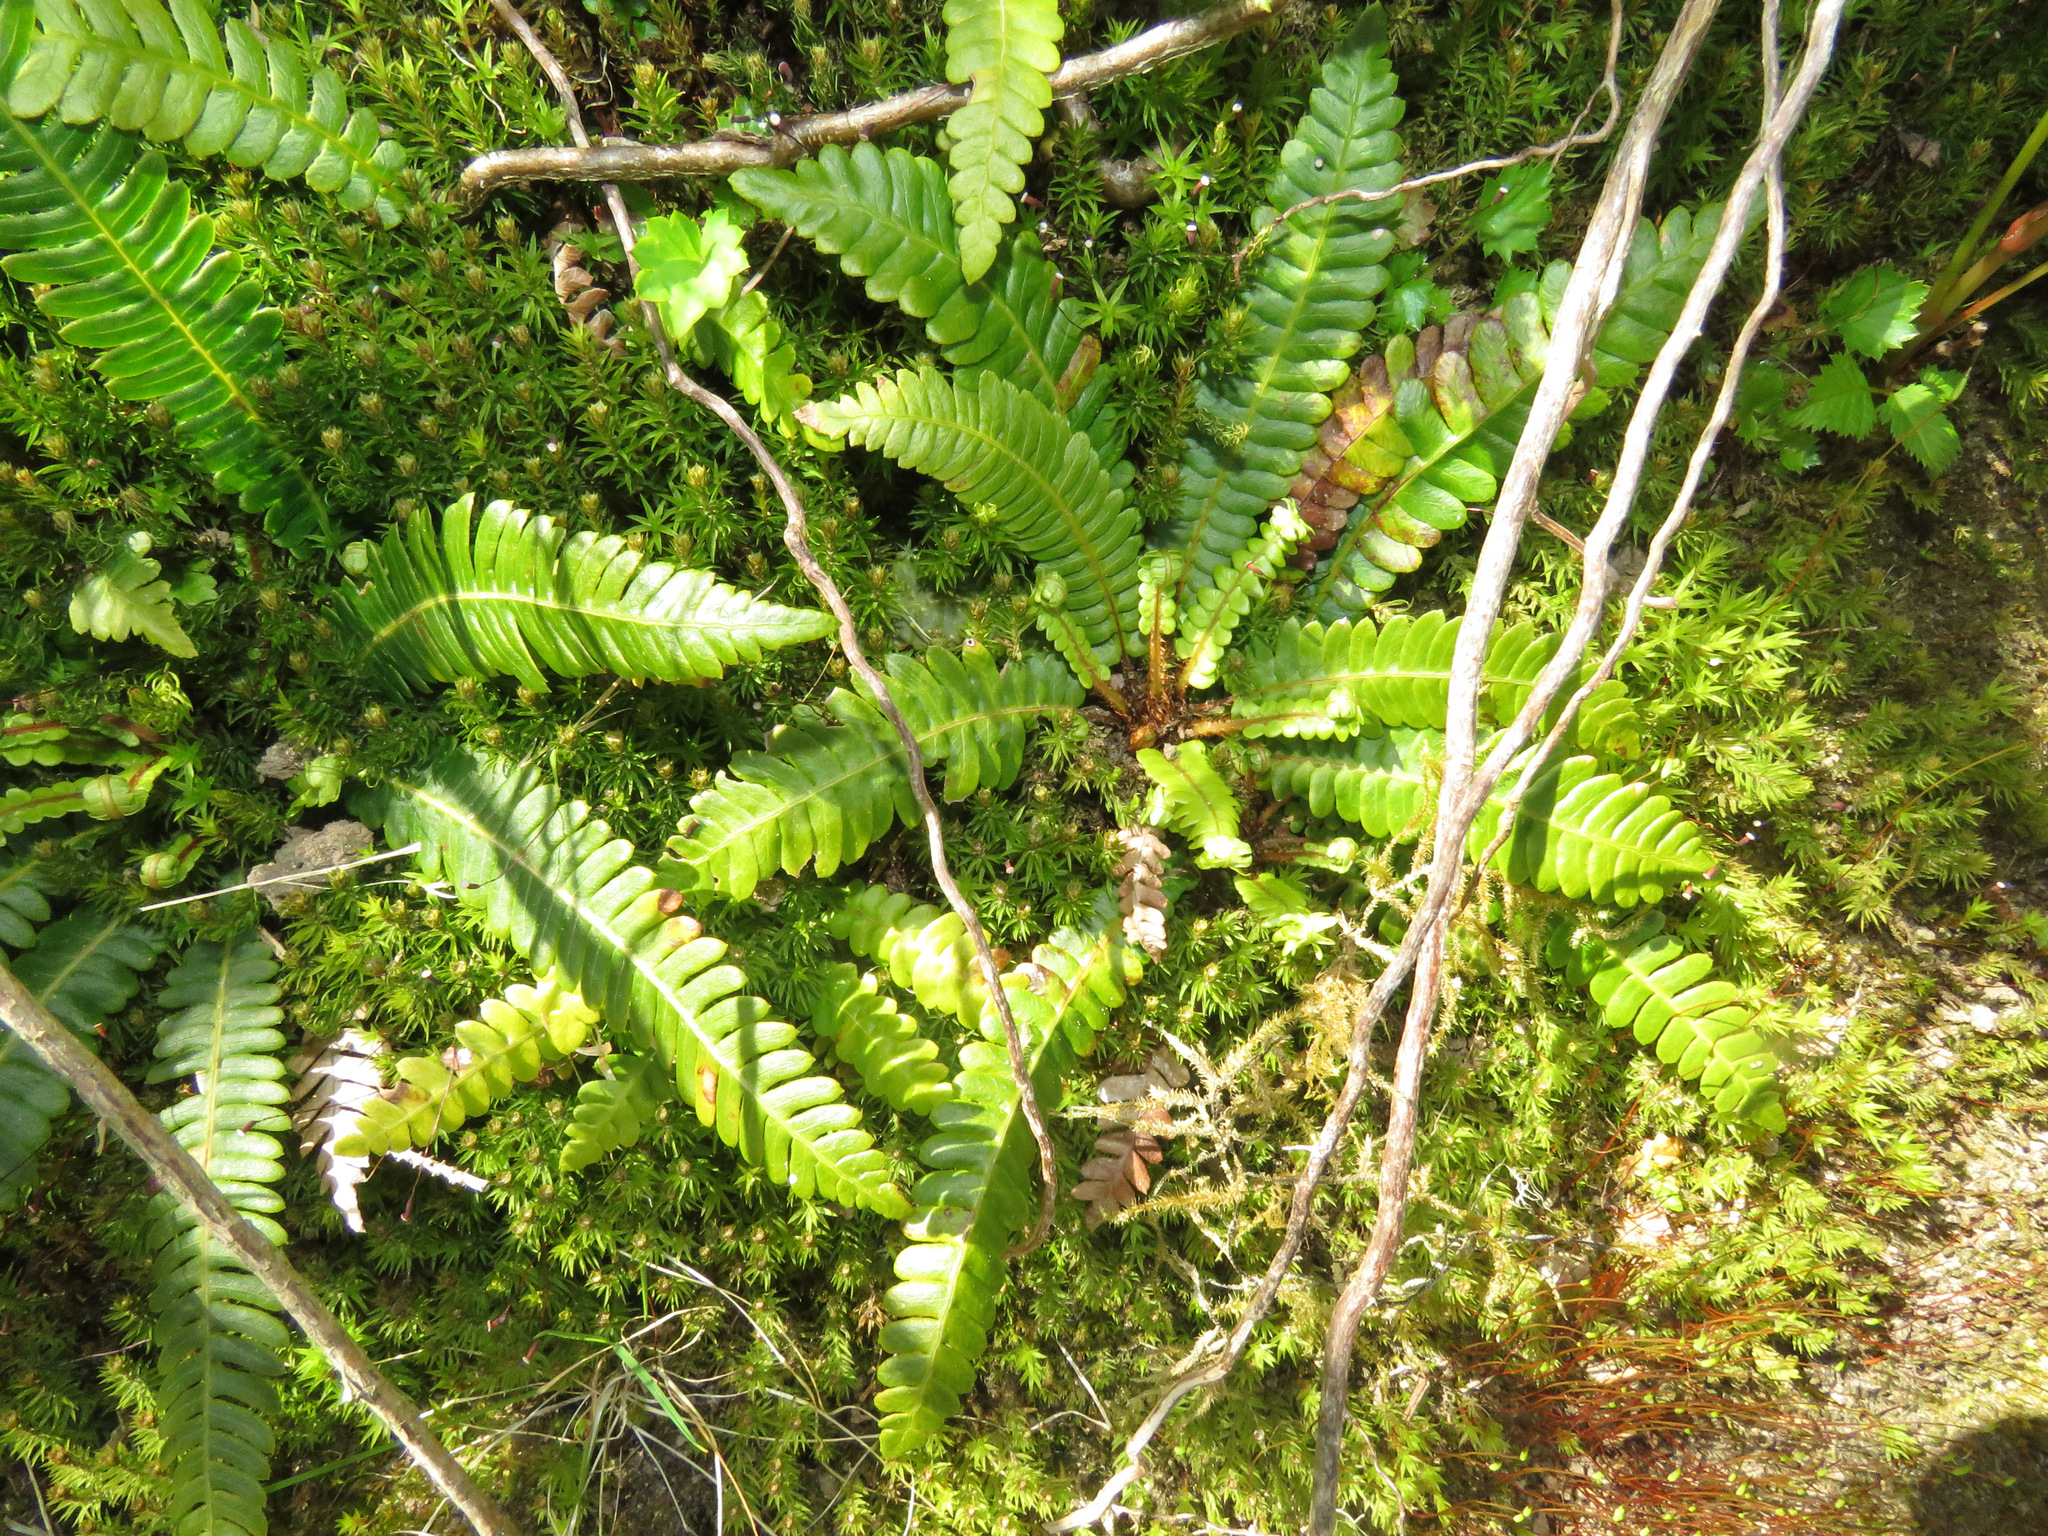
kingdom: Plantae
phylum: Tracheophyta
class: Polypodiopsida
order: Polypodiales
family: Blechnaceae
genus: Struthiopteris
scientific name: Struthiopteris spicant
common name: Deer fern
